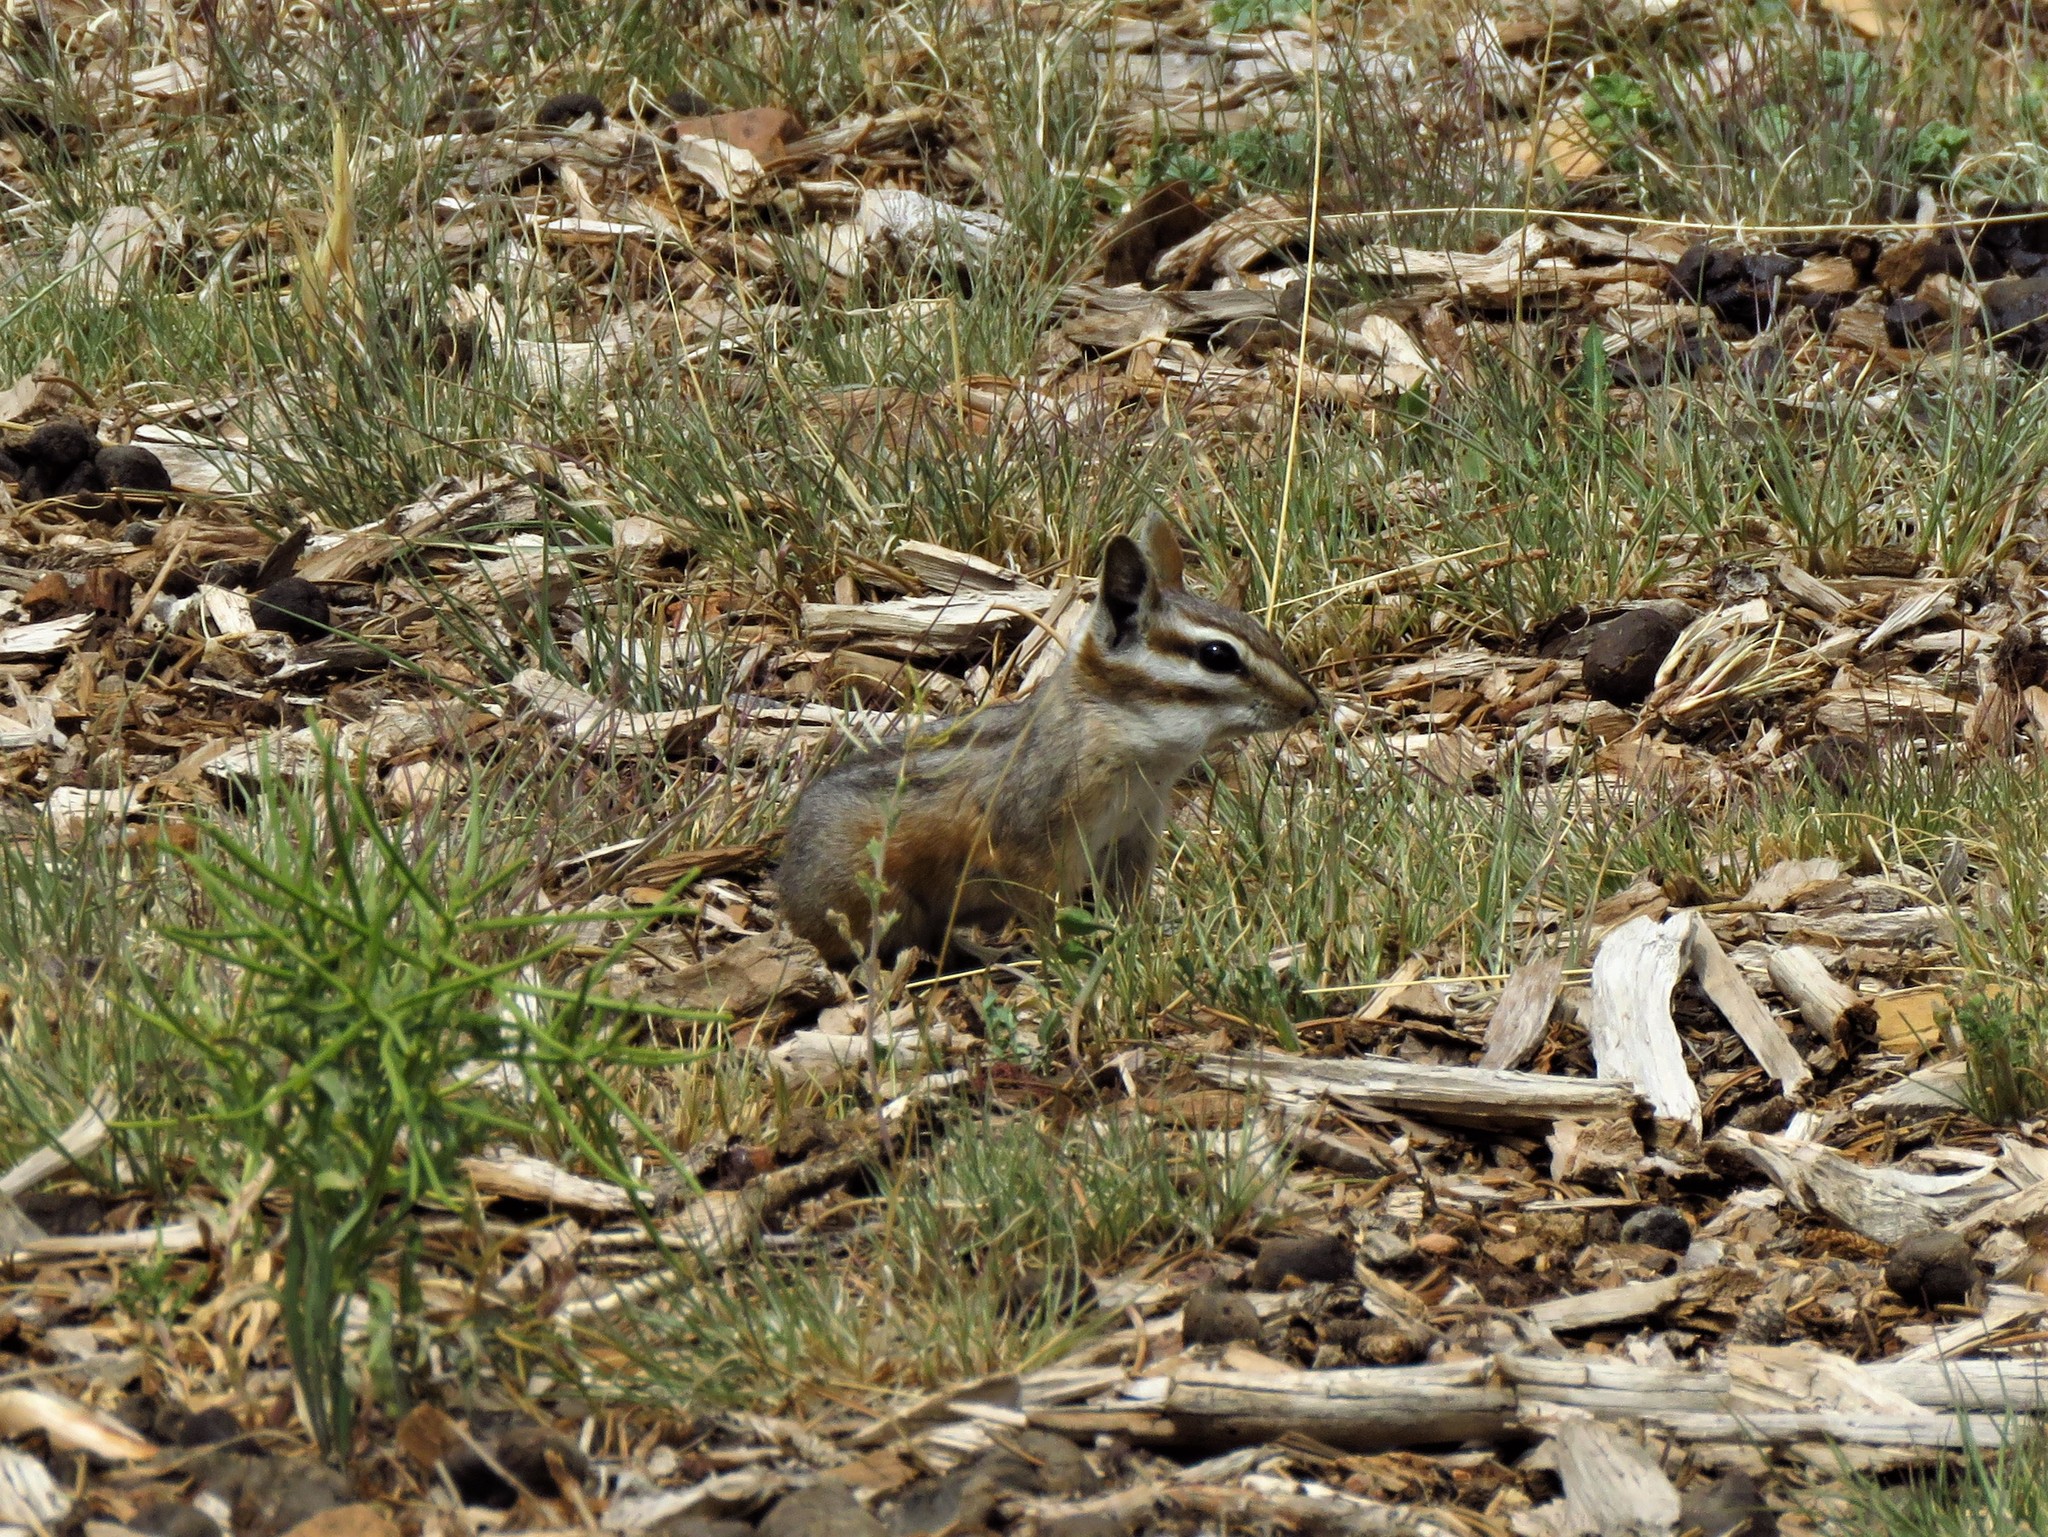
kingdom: Animalia
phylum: Chordata
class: Mammalia
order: Rodentia
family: Sciuridae
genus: Tamias
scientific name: Tamias dorsalis
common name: Cliff chipmunk
